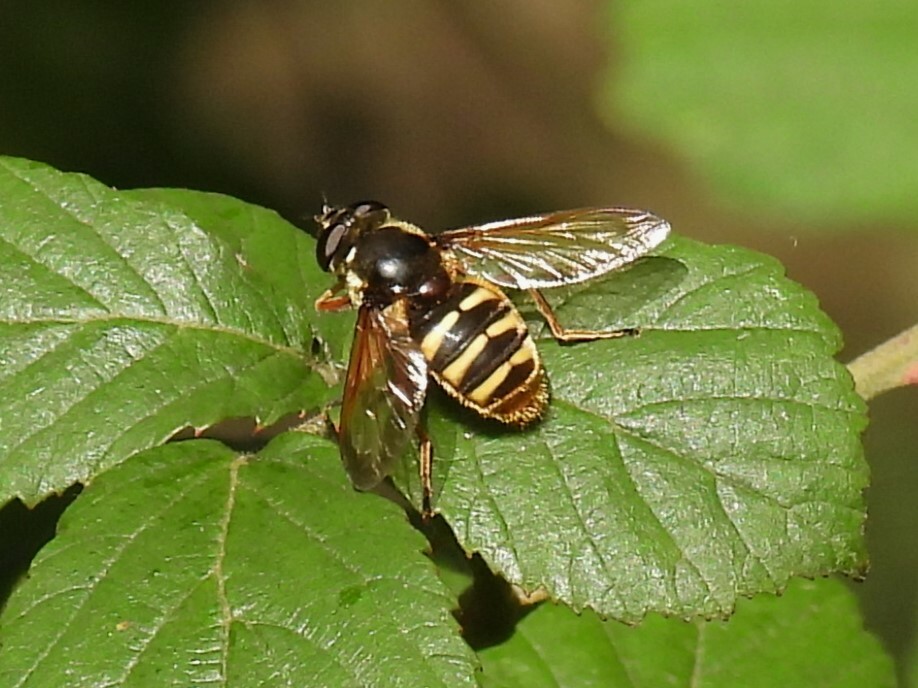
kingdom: Animalia
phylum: Arthropoda
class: Insecta
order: Diptera
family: Syrphidae
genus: Sericomyia
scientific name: Sericomyia silentis
